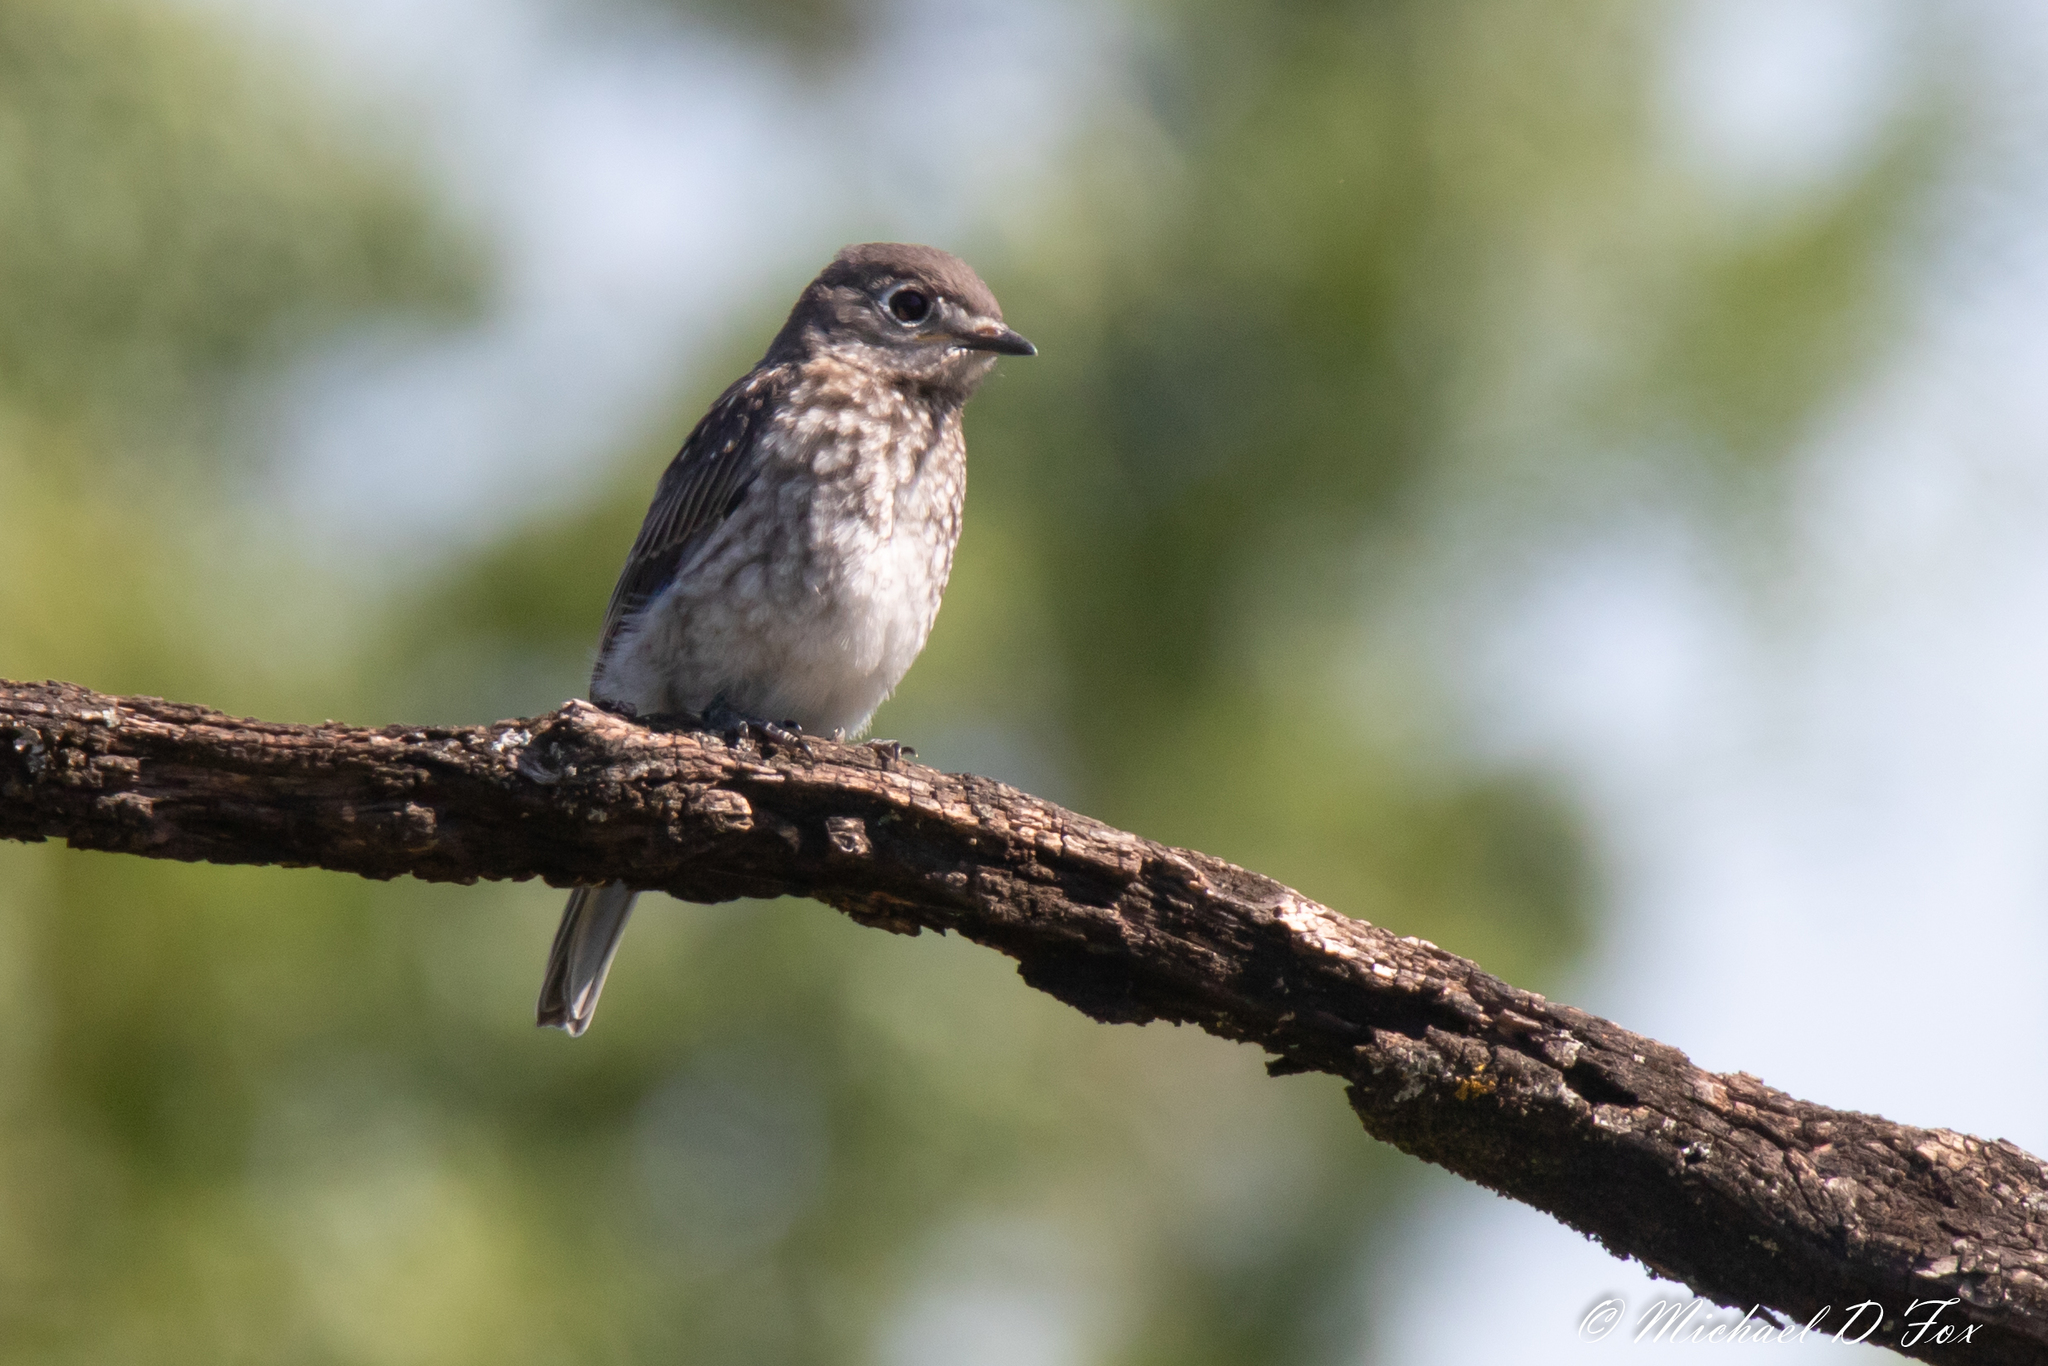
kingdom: Animalia
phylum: Chordata
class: Aves
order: Passeriformes
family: Turdidae
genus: Sialia
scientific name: Sialia sialis
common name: Eastern bluebird
